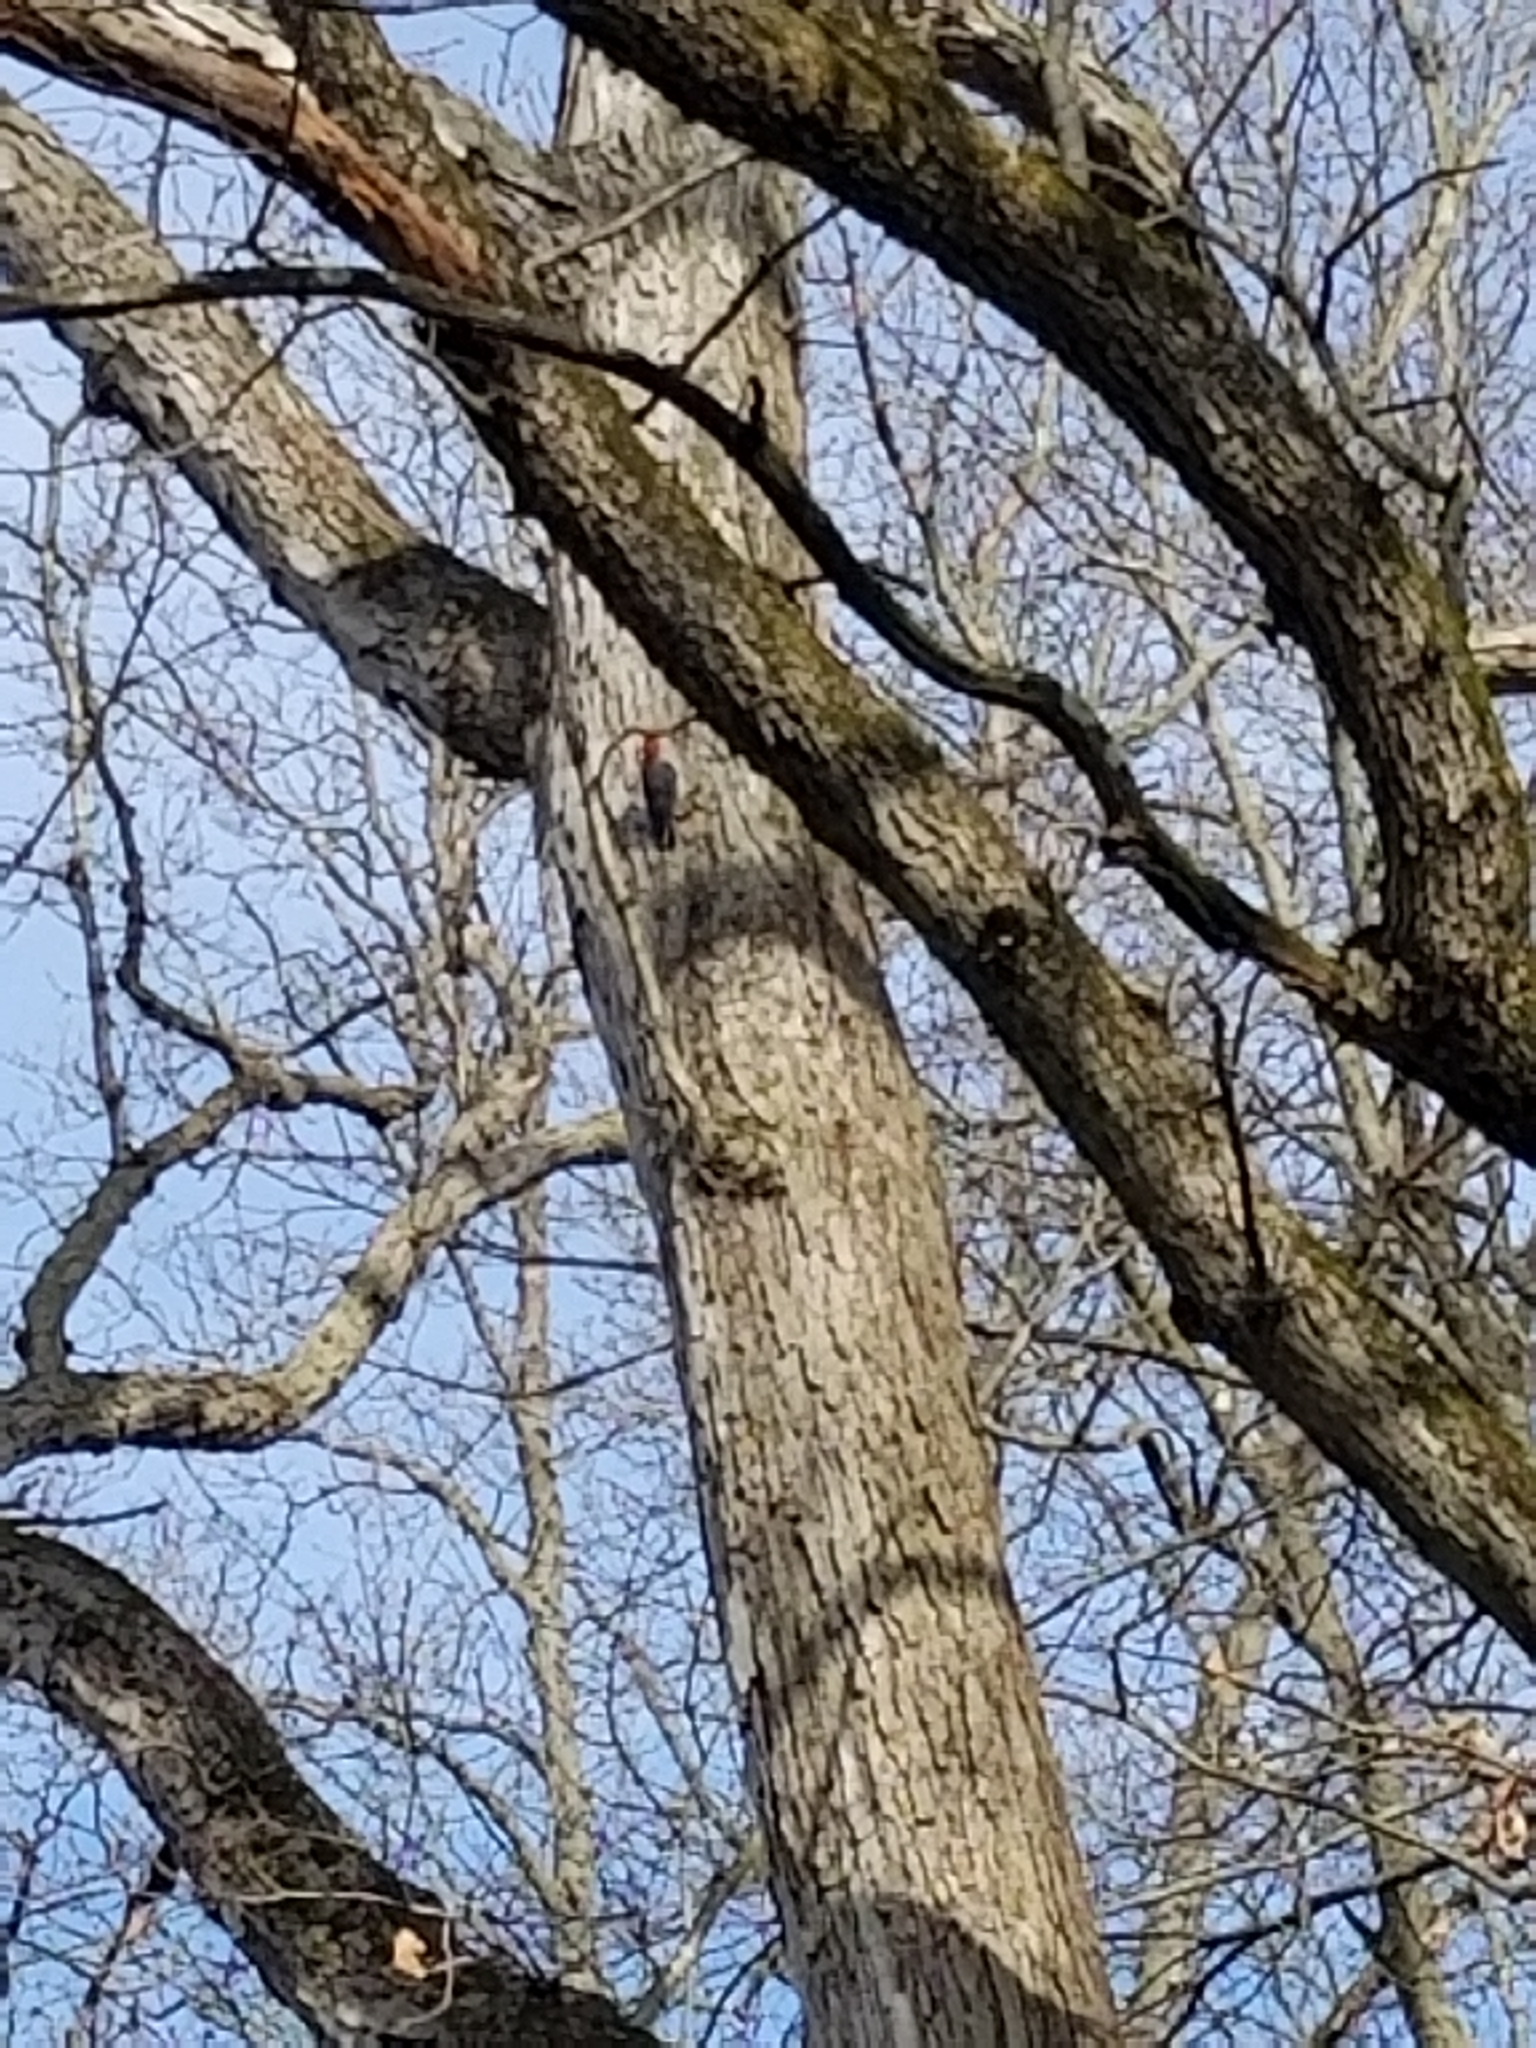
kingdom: Animalia
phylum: Chordata
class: Aves
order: Piciformes
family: Picidae
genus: Melanerpes
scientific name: Melanerpes carolinus
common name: Red-bellied woodpecker
